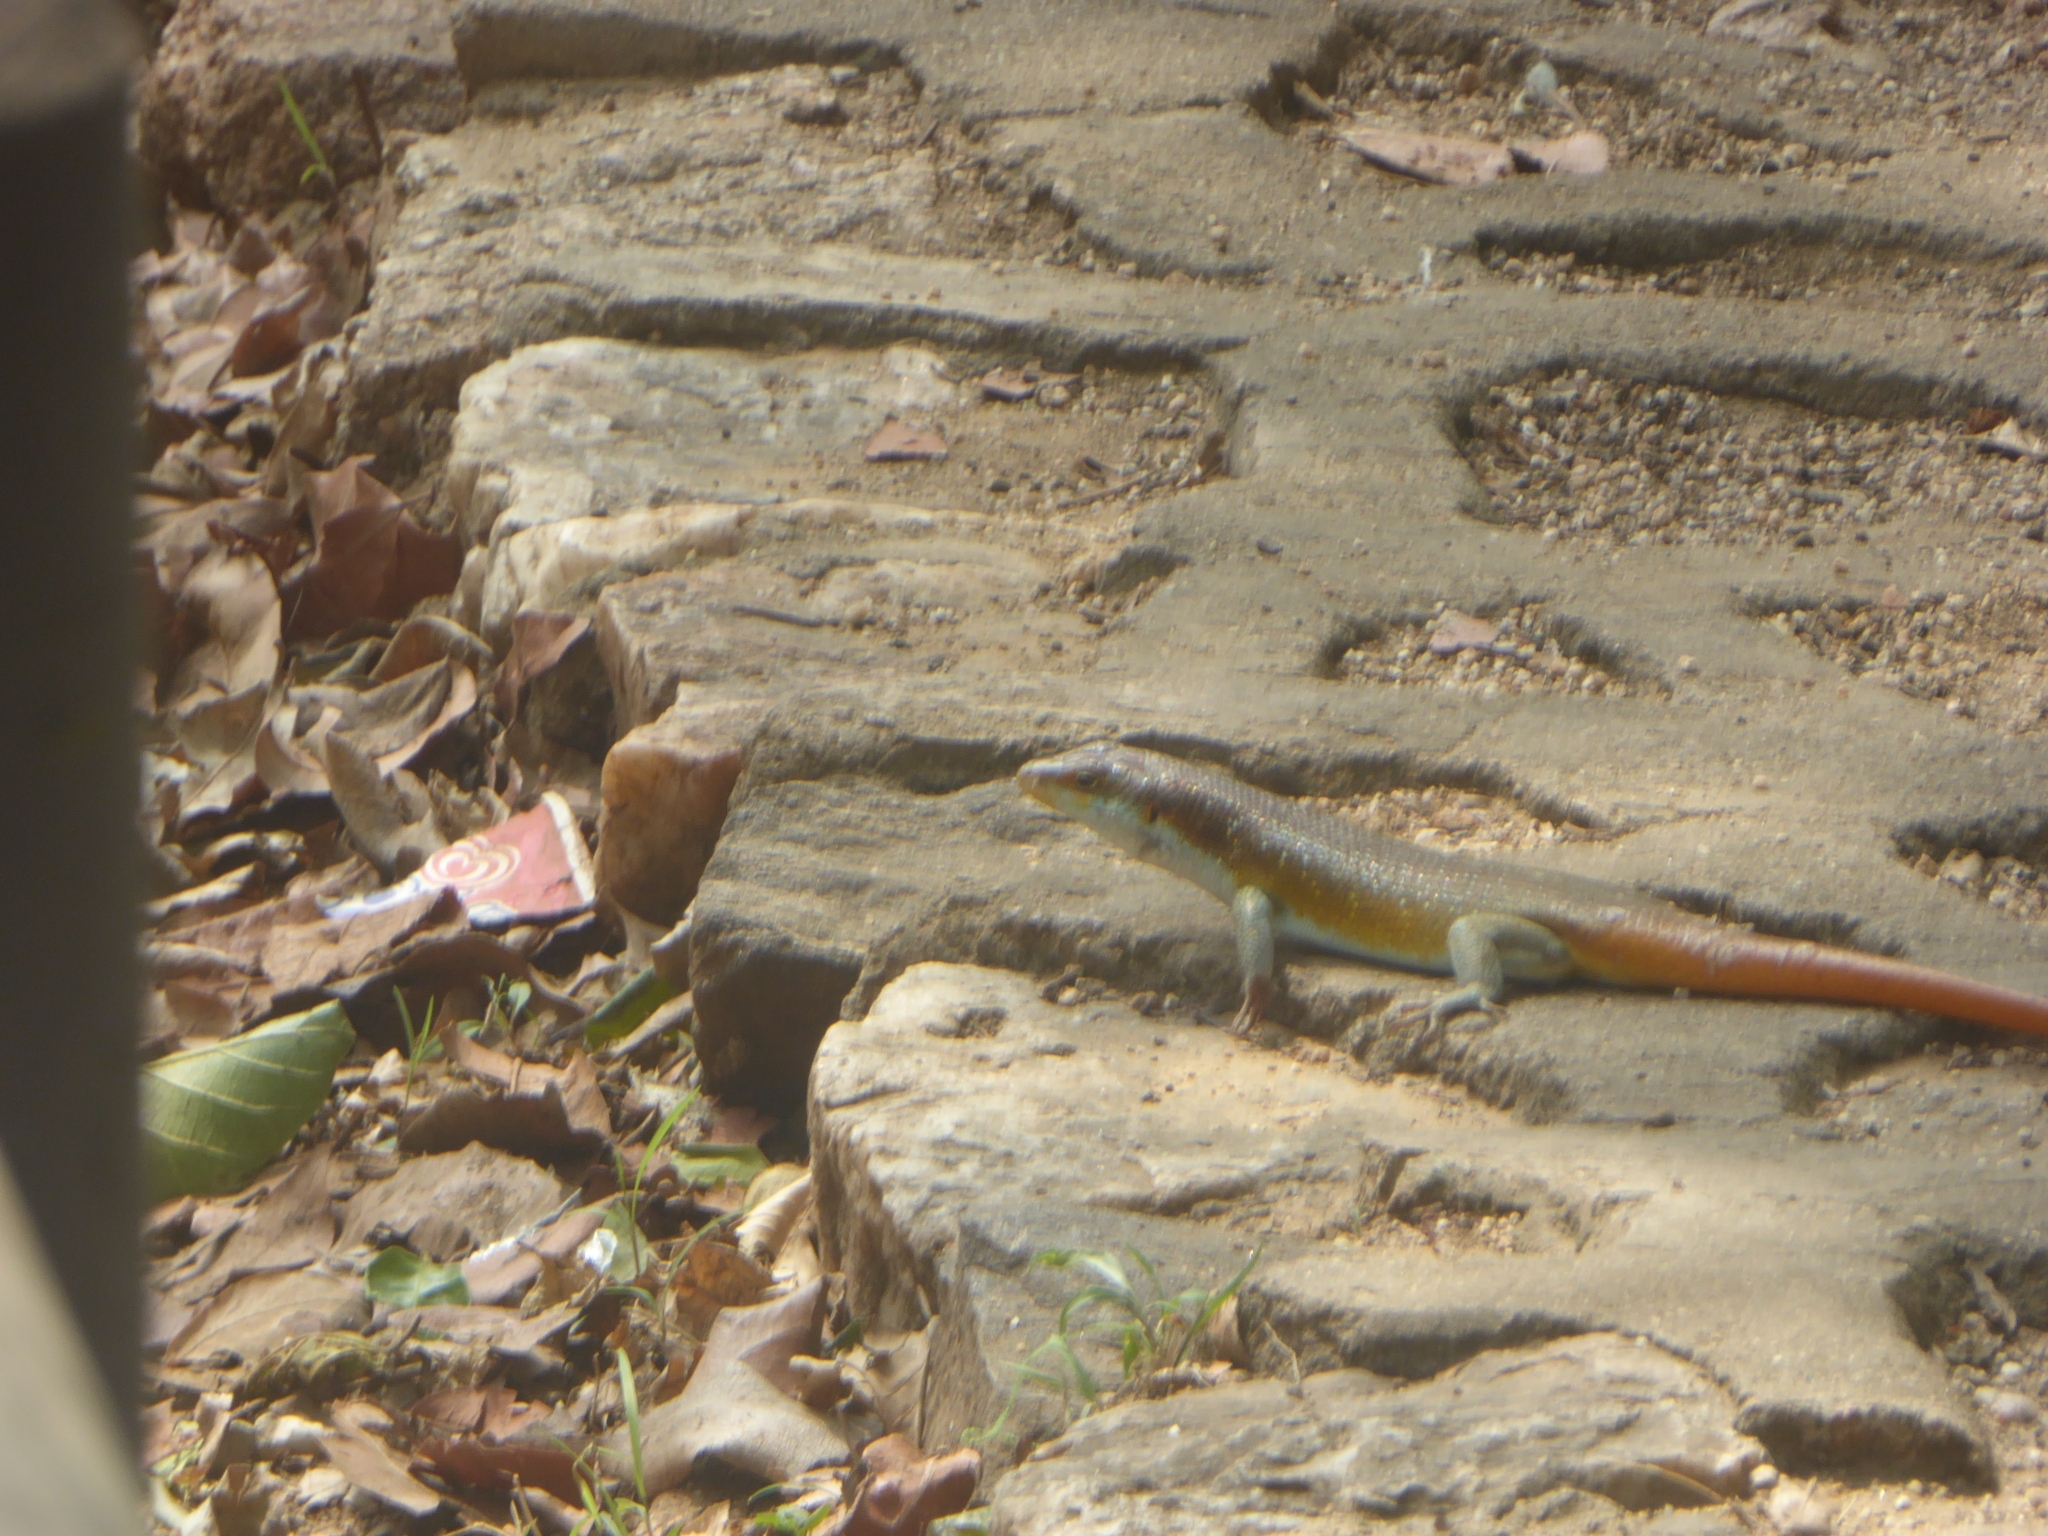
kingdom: Animalia
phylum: Chordata
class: Squamata
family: Scincidae
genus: Trachylepis
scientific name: Trachylepis margaritifera
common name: Rainbow skink
